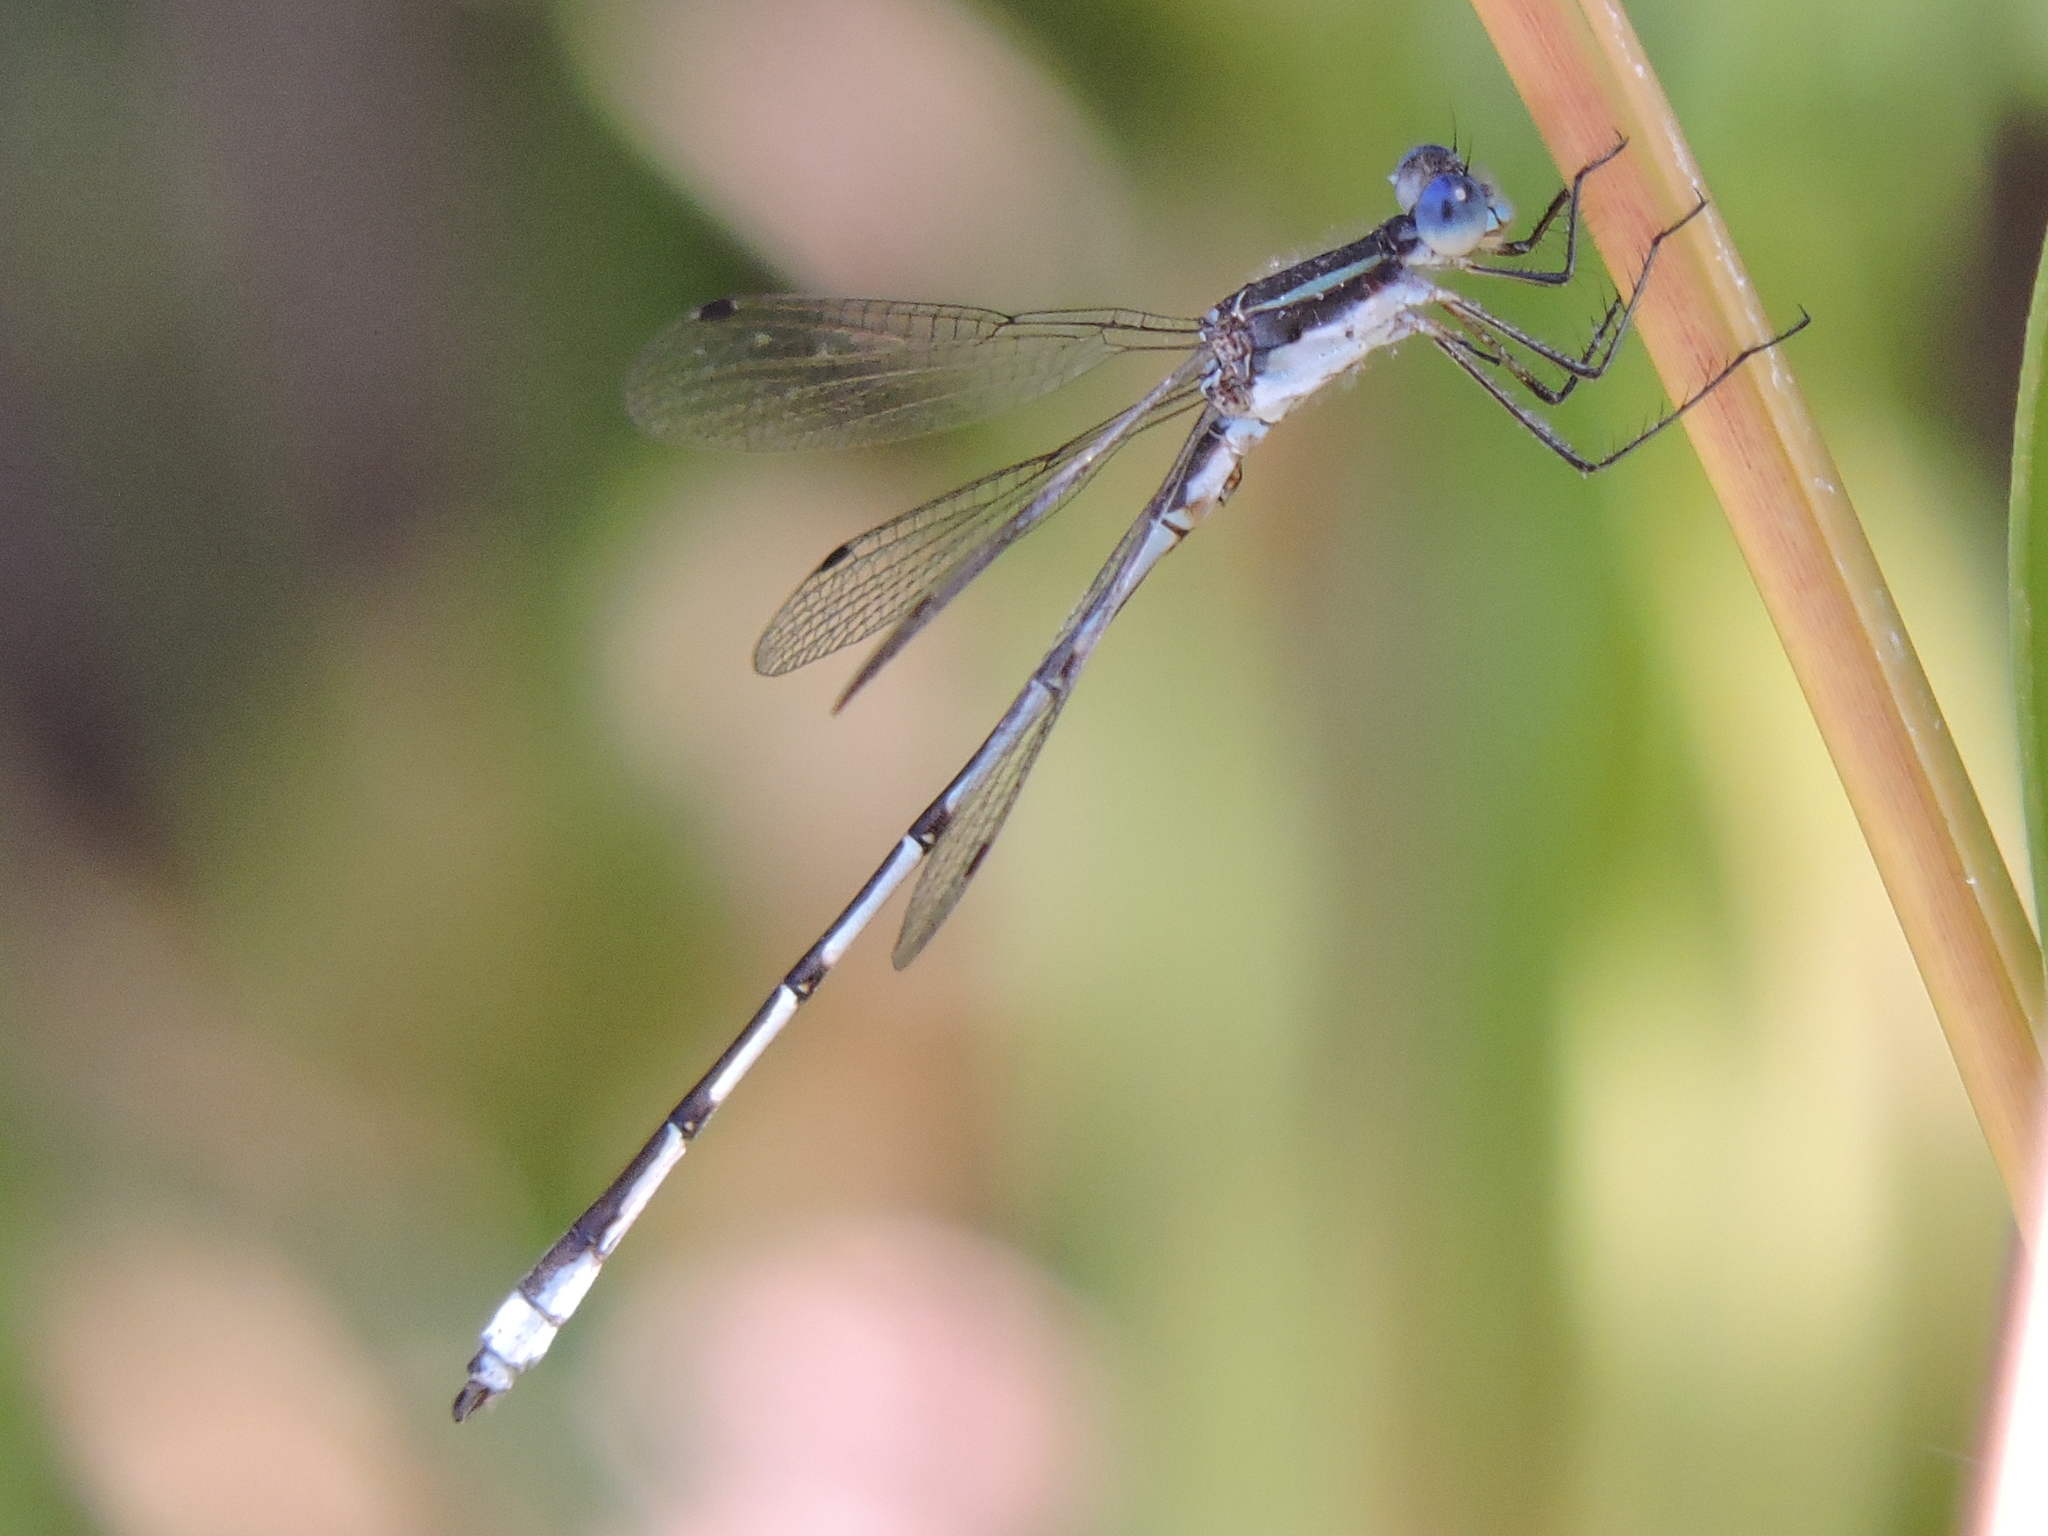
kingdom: Animalia
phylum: Arthropoda
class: Insecta
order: Odonata
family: Lestidae
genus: Lestes
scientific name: Lestes australis
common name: Southern spreadwing
